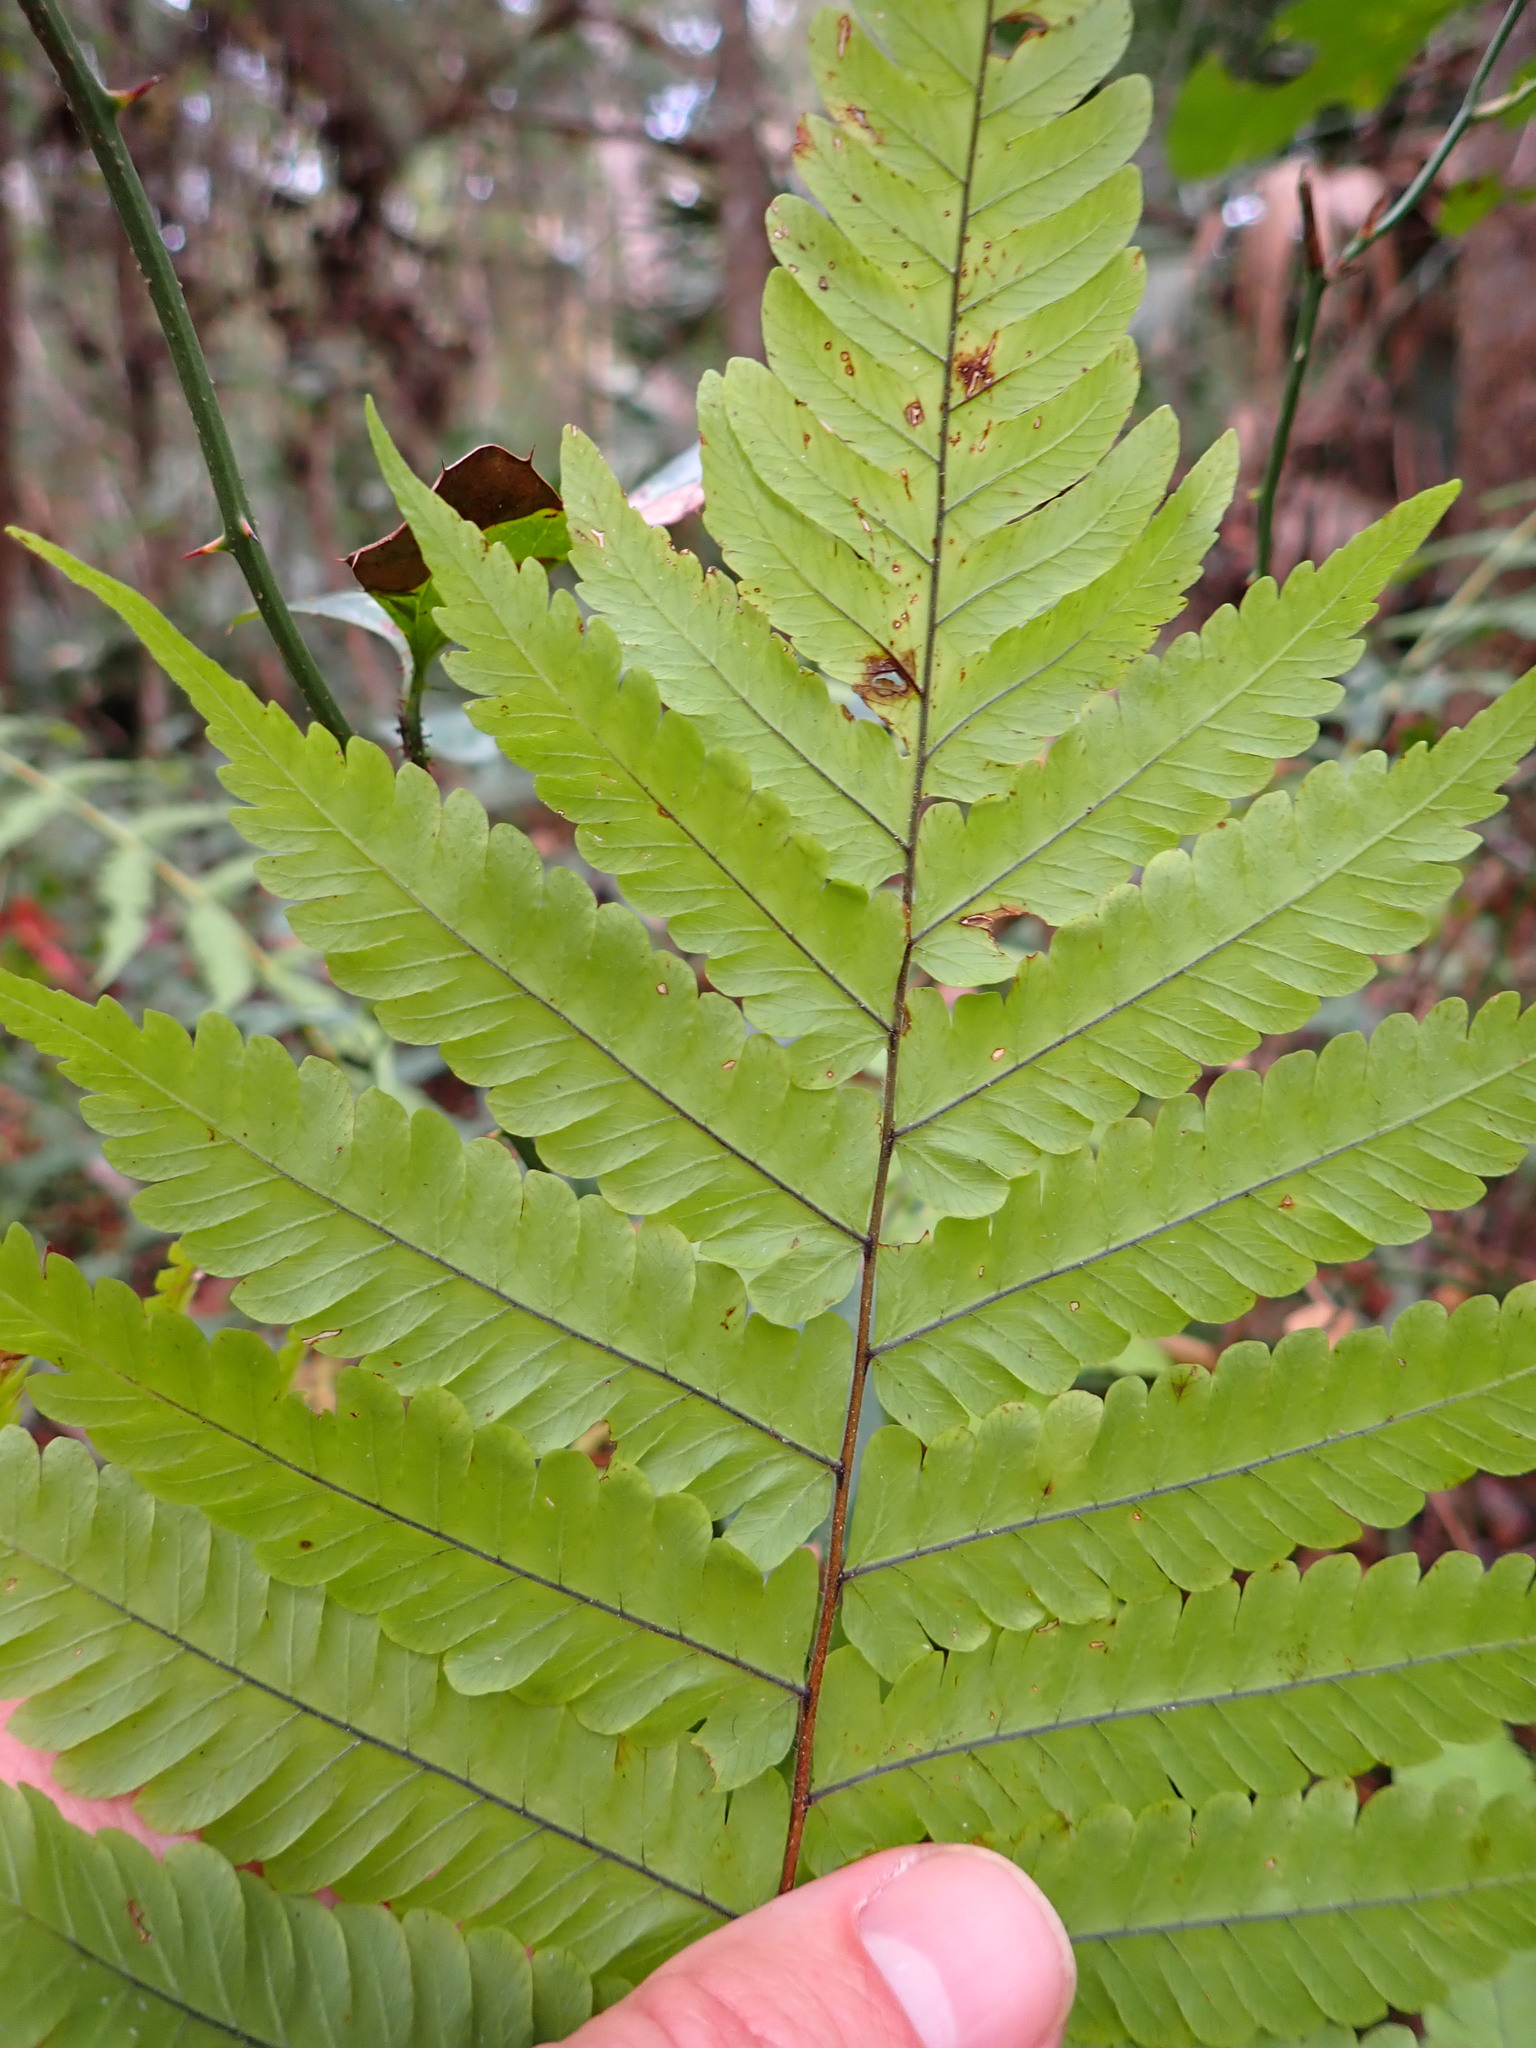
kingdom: Plantae
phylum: Tracheophyta
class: Polypodiopsida
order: Polypodiales
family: Thelypteridaceae
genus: Christella
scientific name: Christella dentata
